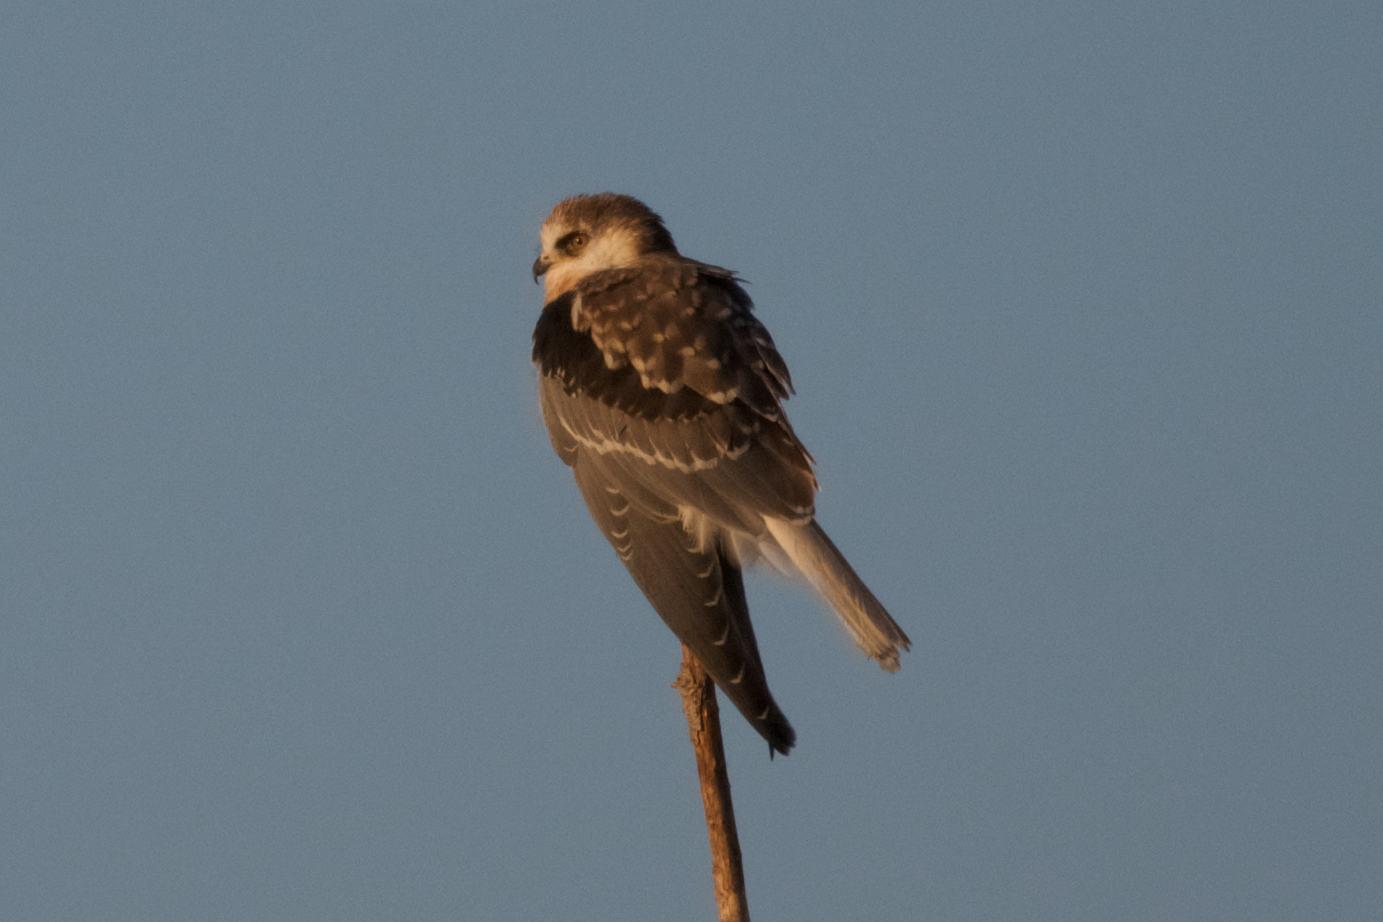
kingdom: Animalia
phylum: Chordata
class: Aves
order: Accipitriformes
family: Accipitridae
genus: Elanus
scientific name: Elanus leucurus
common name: White-tailed kite
